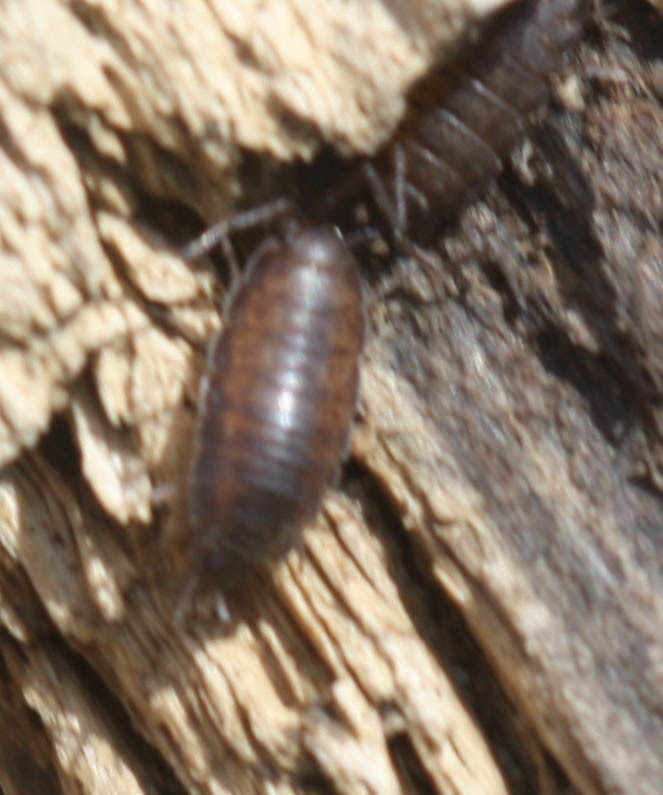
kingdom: Animalia
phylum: Arthropoda
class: Malacostraca
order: Isopoda
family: Halophilosciidae
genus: Littorophiloscia
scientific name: Littorophiloscia richardsonae
